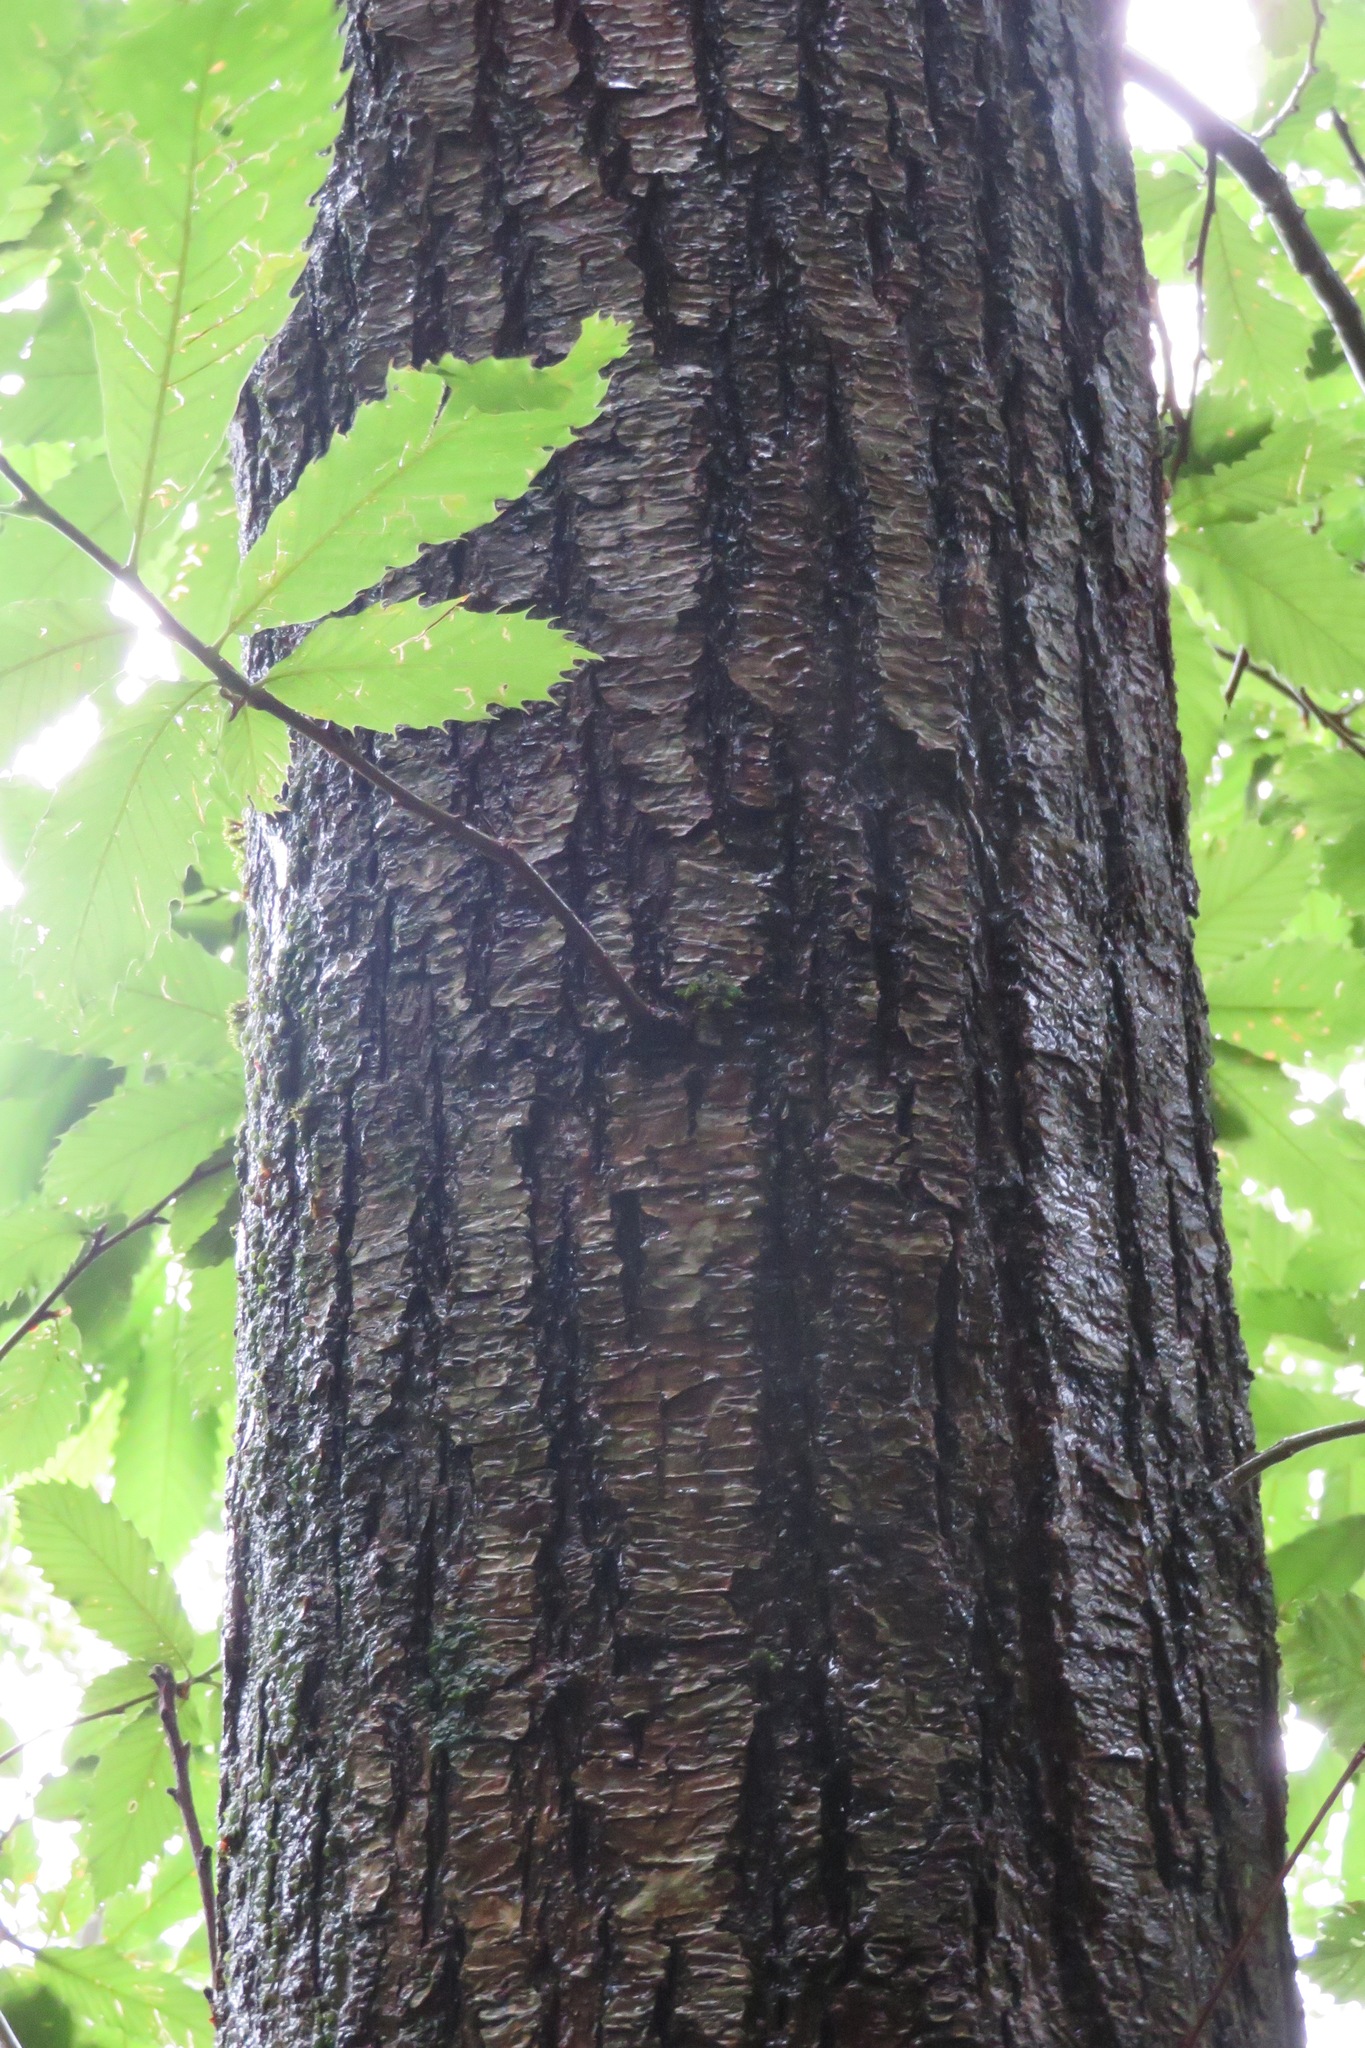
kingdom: Plantae
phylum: Tracheophyta
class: Magnoliopsida
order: Fagales
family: Fagaceae
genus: Castanea
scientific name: Castanea sativa
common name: Sweet chestnut
